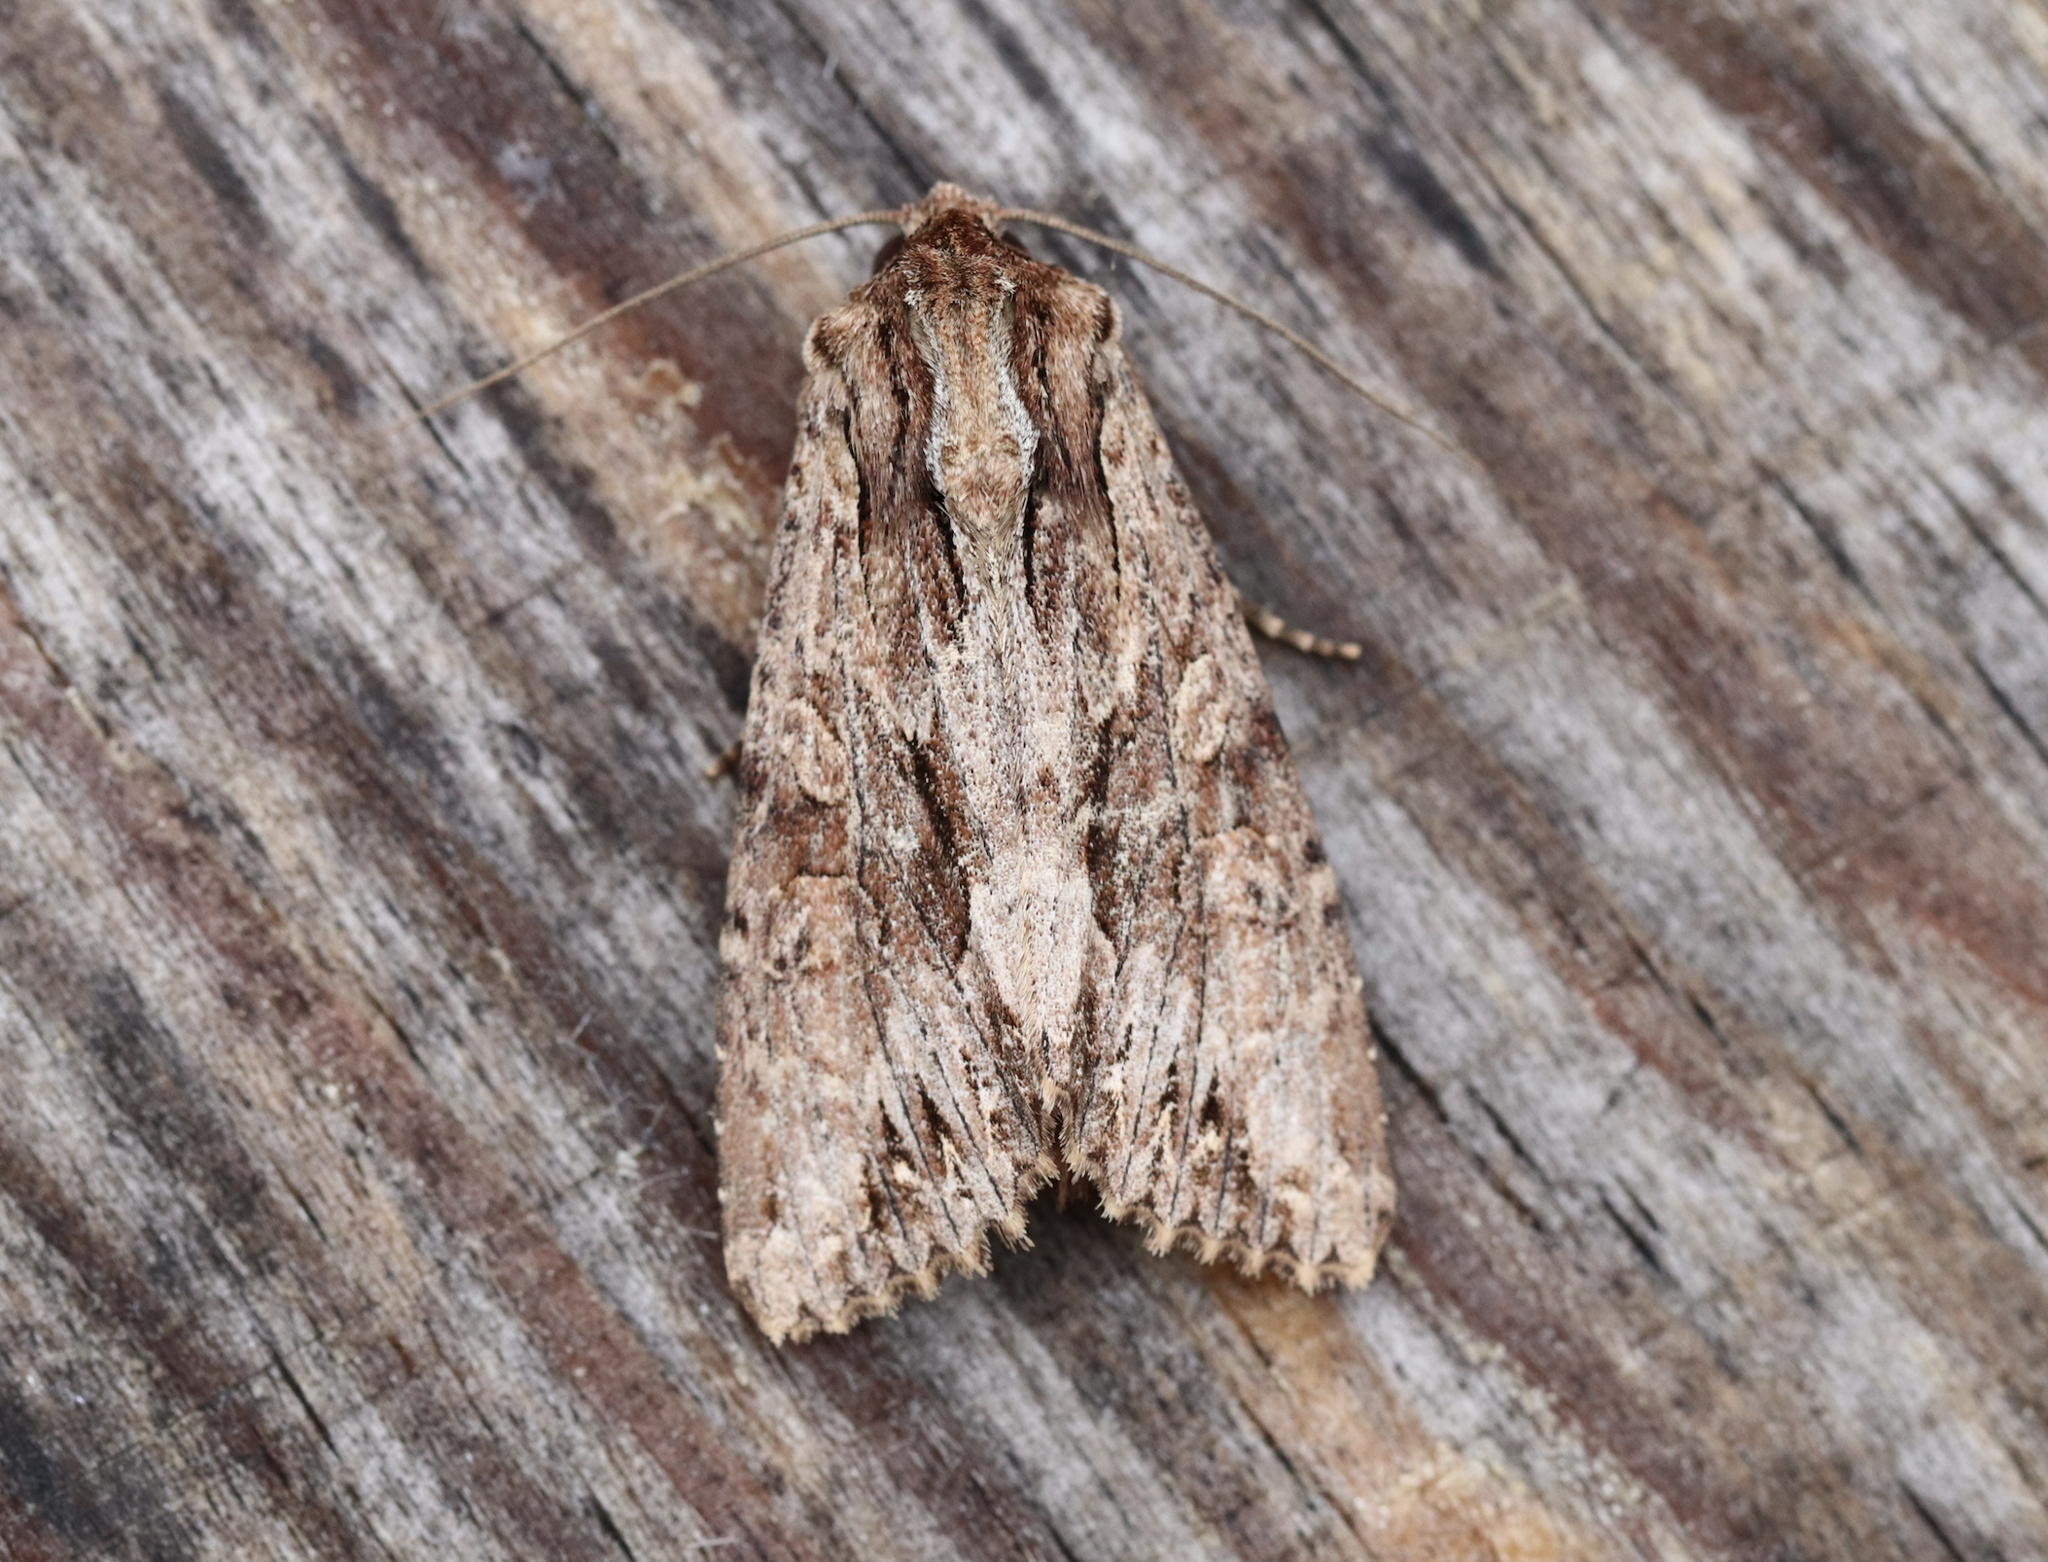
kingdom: Animalia
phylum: Arthropoda
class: Insecta
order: Lepidoptera
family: Noctuidae
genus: Apamea
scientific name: Apamea monoglypha
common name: Dark arches
